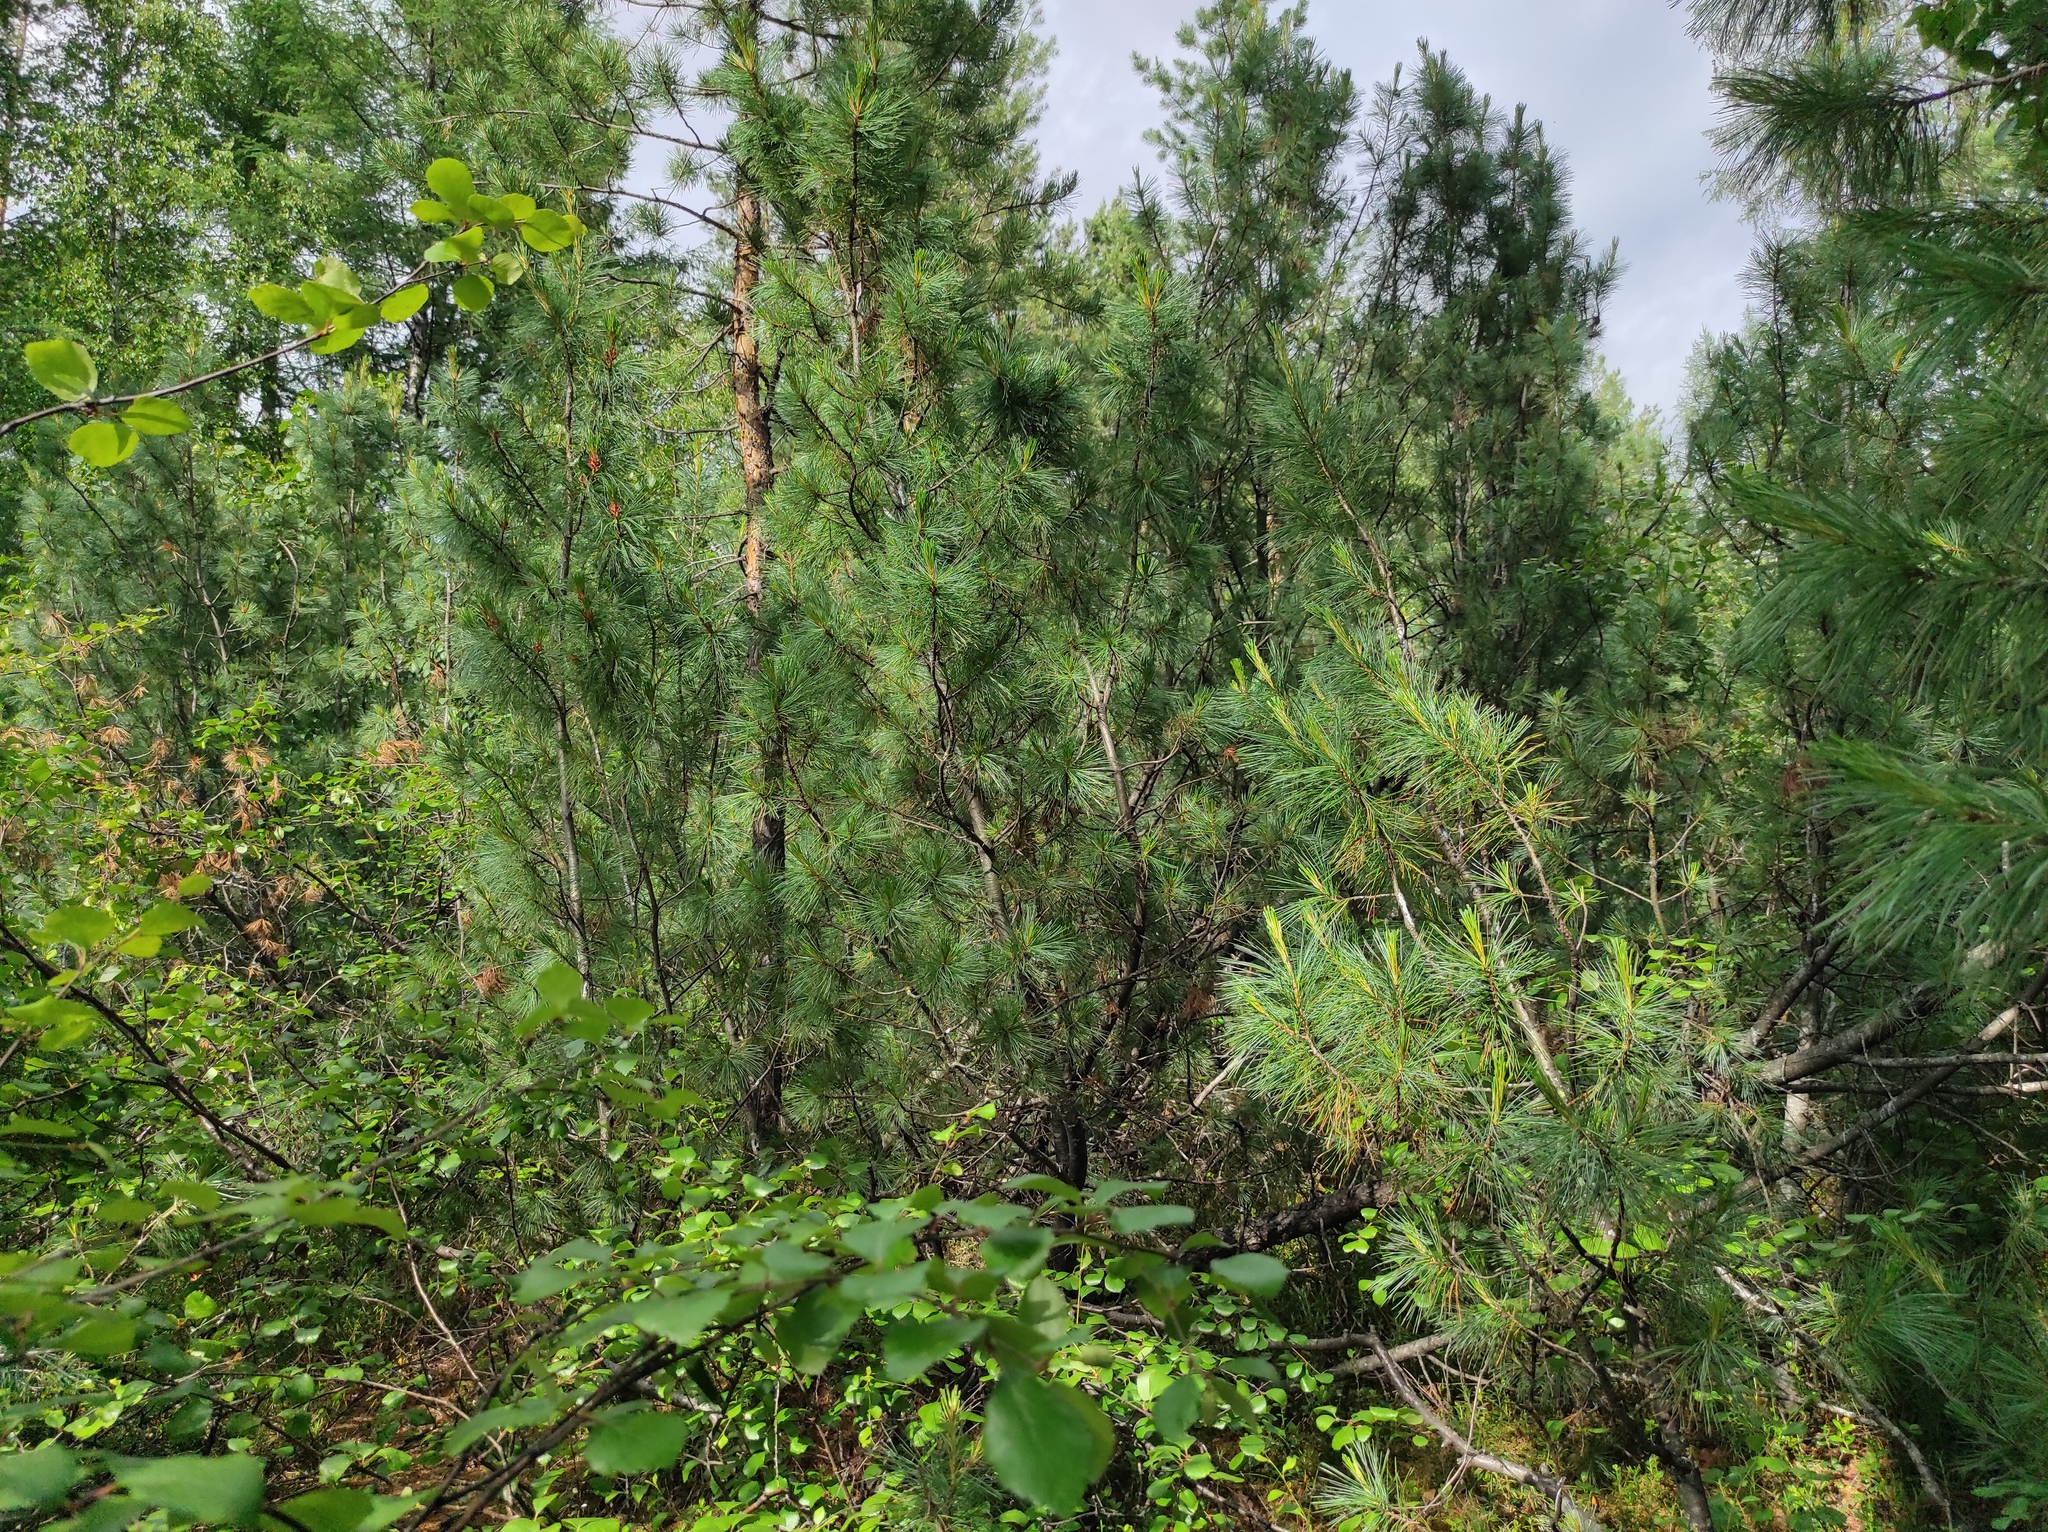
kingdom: Plantae
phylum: Tracheophyta
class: Pinopsida
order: Pinales
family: Pinaceae
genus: Pinus
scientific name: Pinus pumila
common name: Dwarf siberian pine
